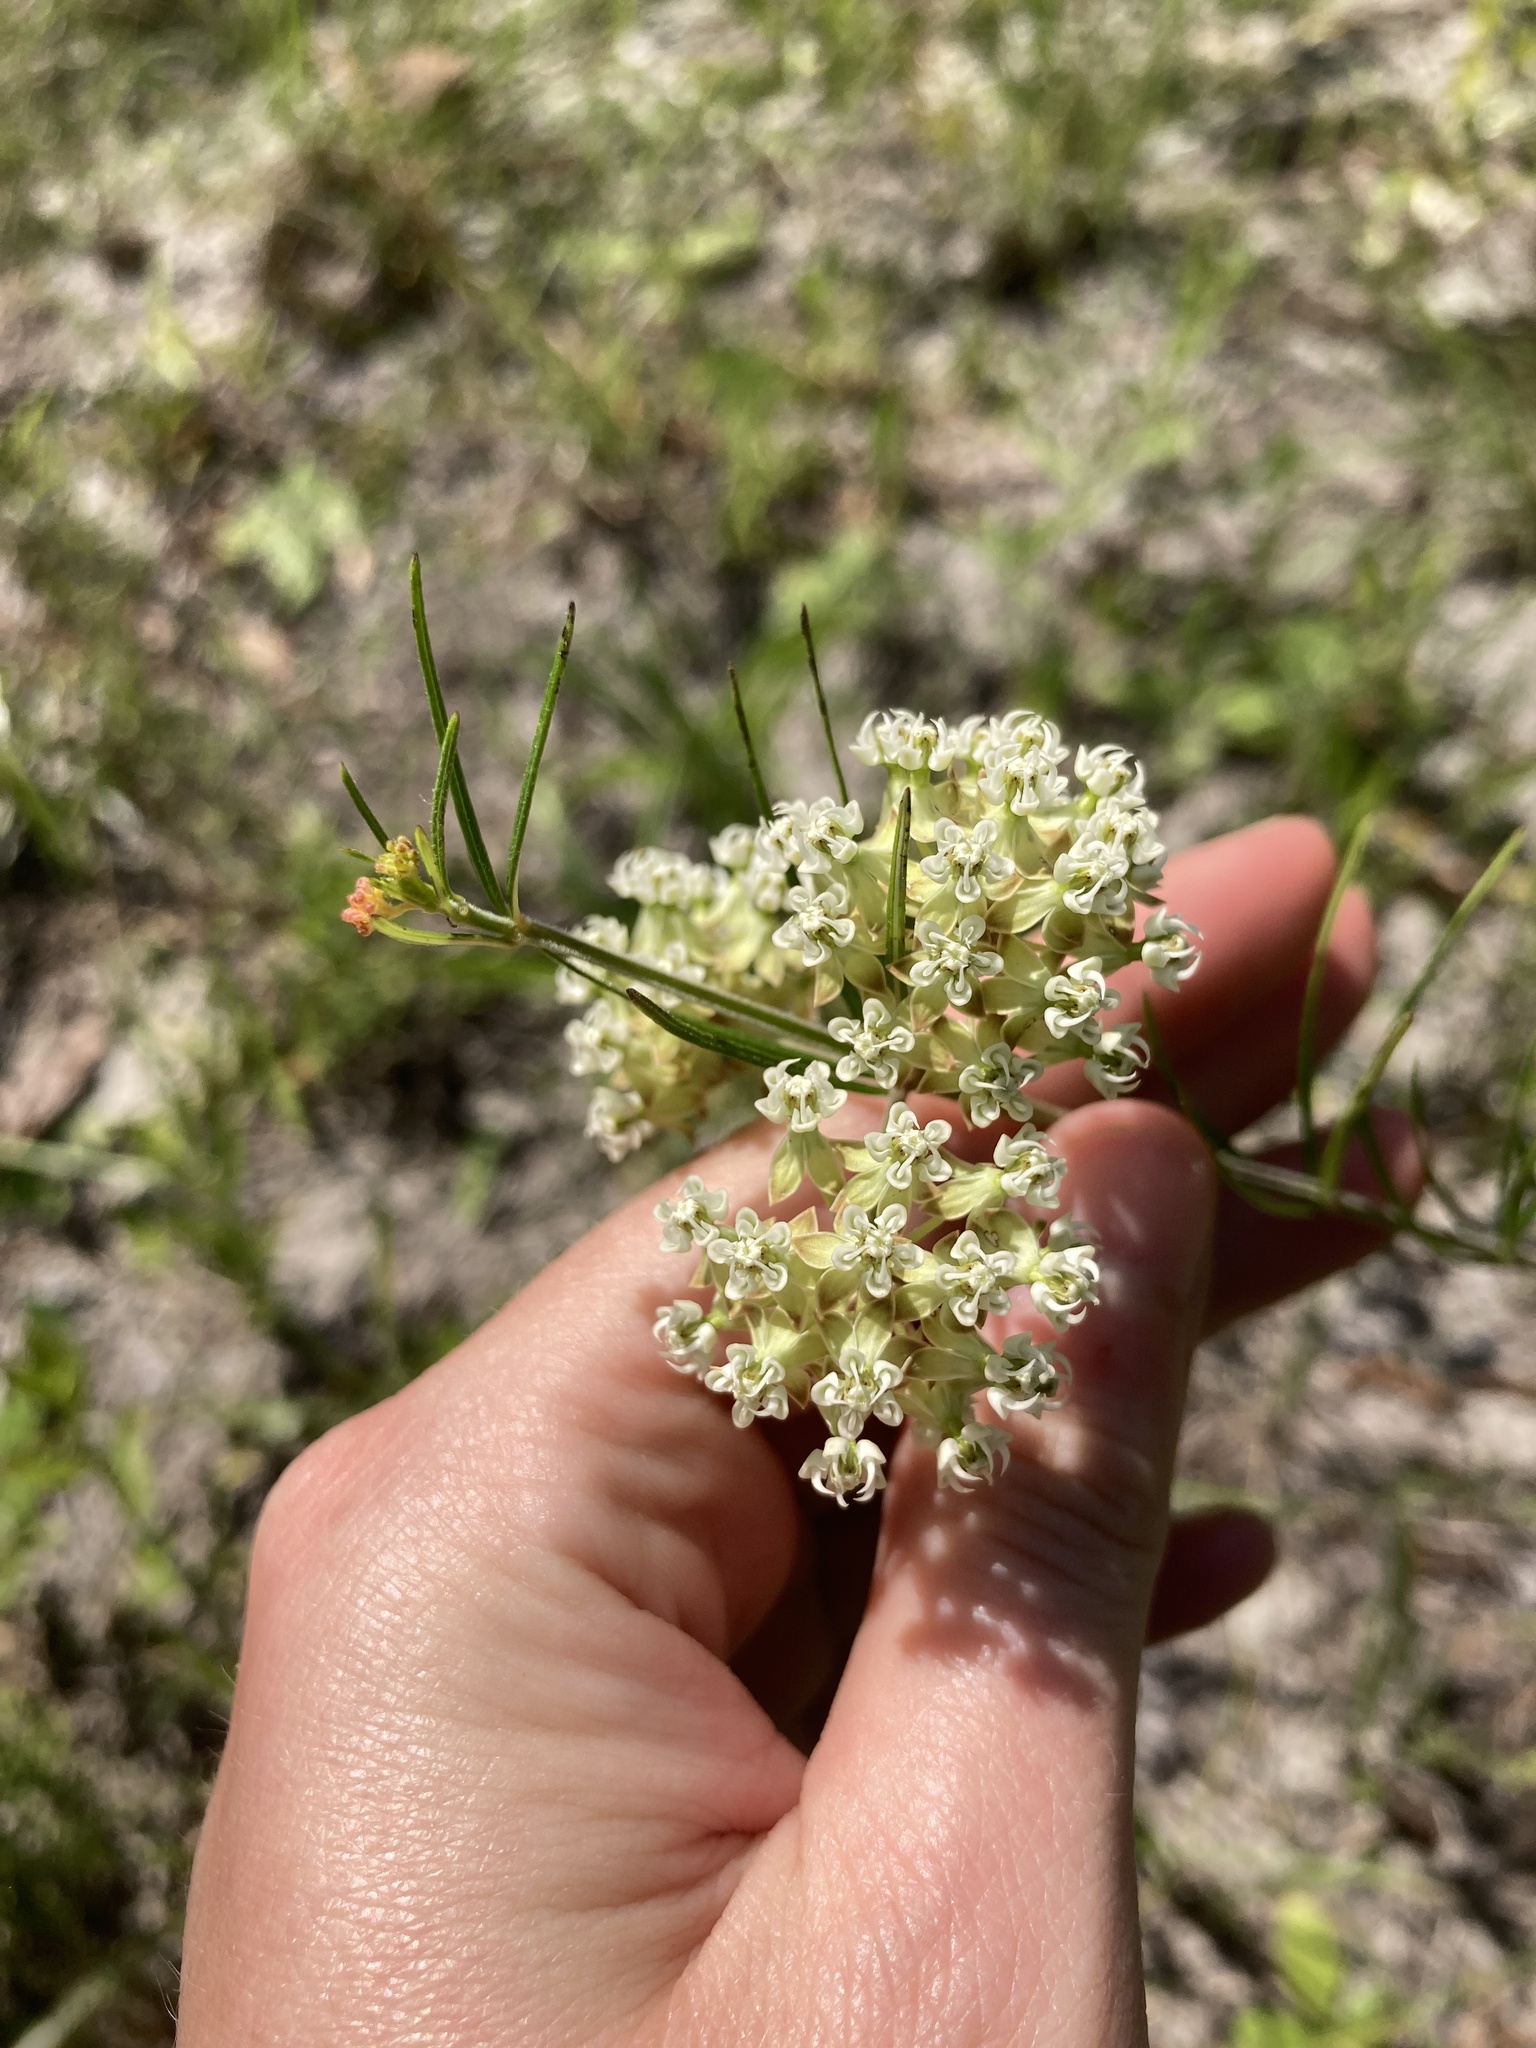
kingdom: Plantae
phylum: Tracheophyta
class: Magnoliopsida
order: Gentianales
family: Apocynaceae
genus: Asclepias
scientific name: Asclepias verticillata
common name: Eastern whorled milkweed
